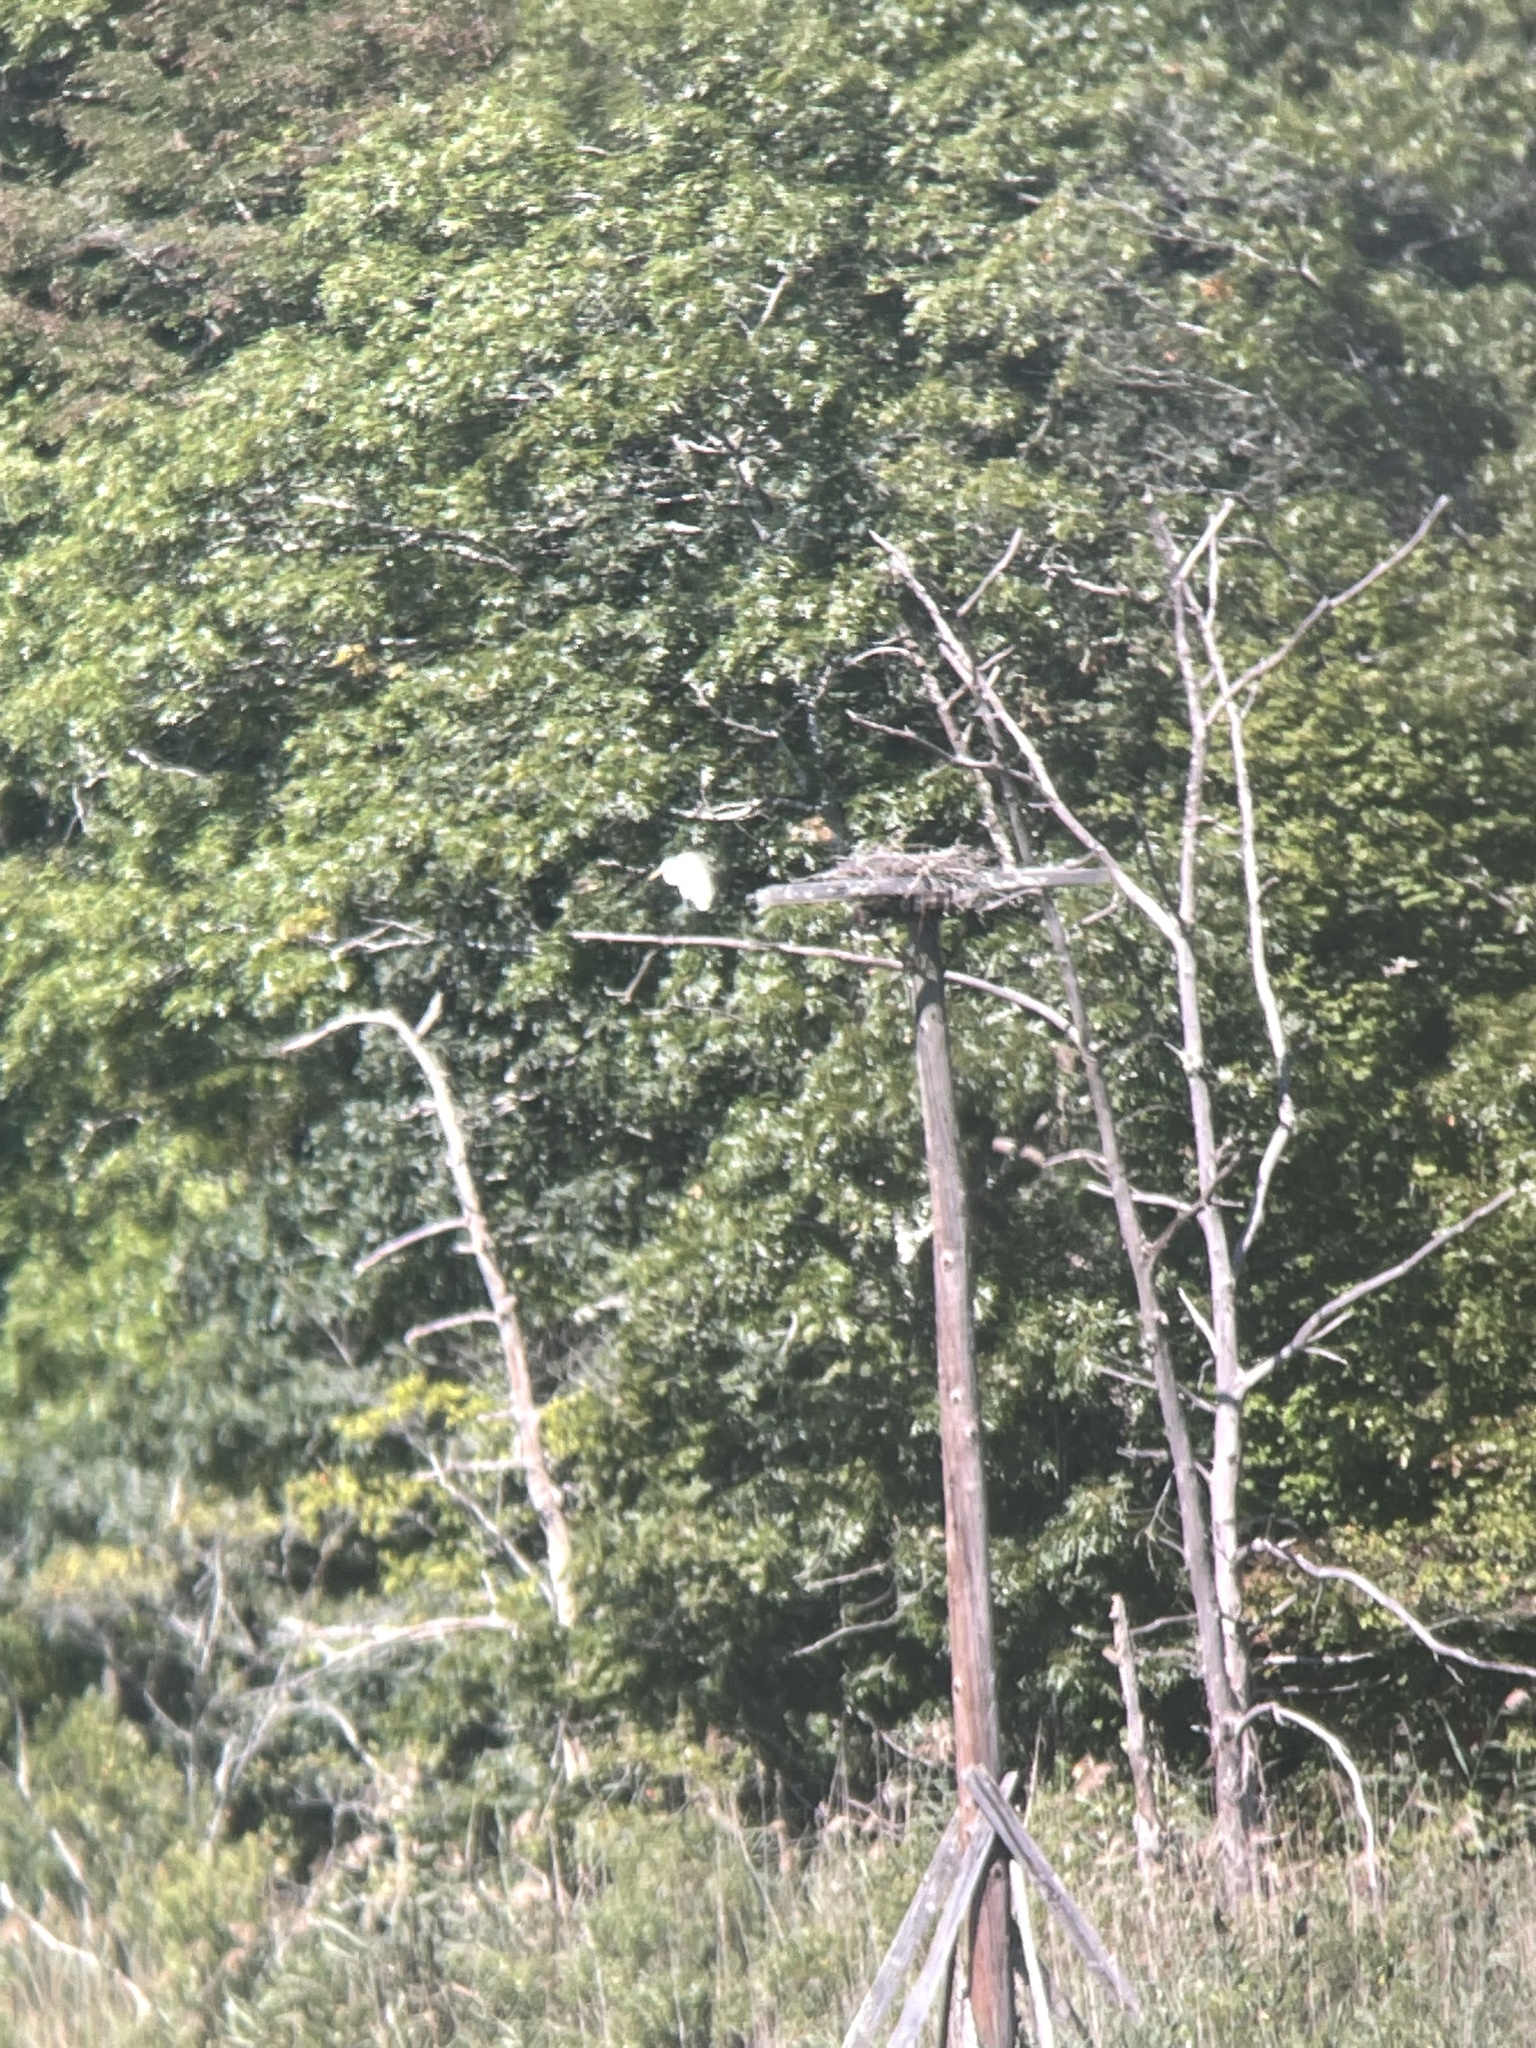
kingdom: Animalia
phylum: Chordata
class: Aves
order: Pelecaniformes
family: Ardeidae
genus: Ardea
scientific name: Ardea alba
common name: Great egret
